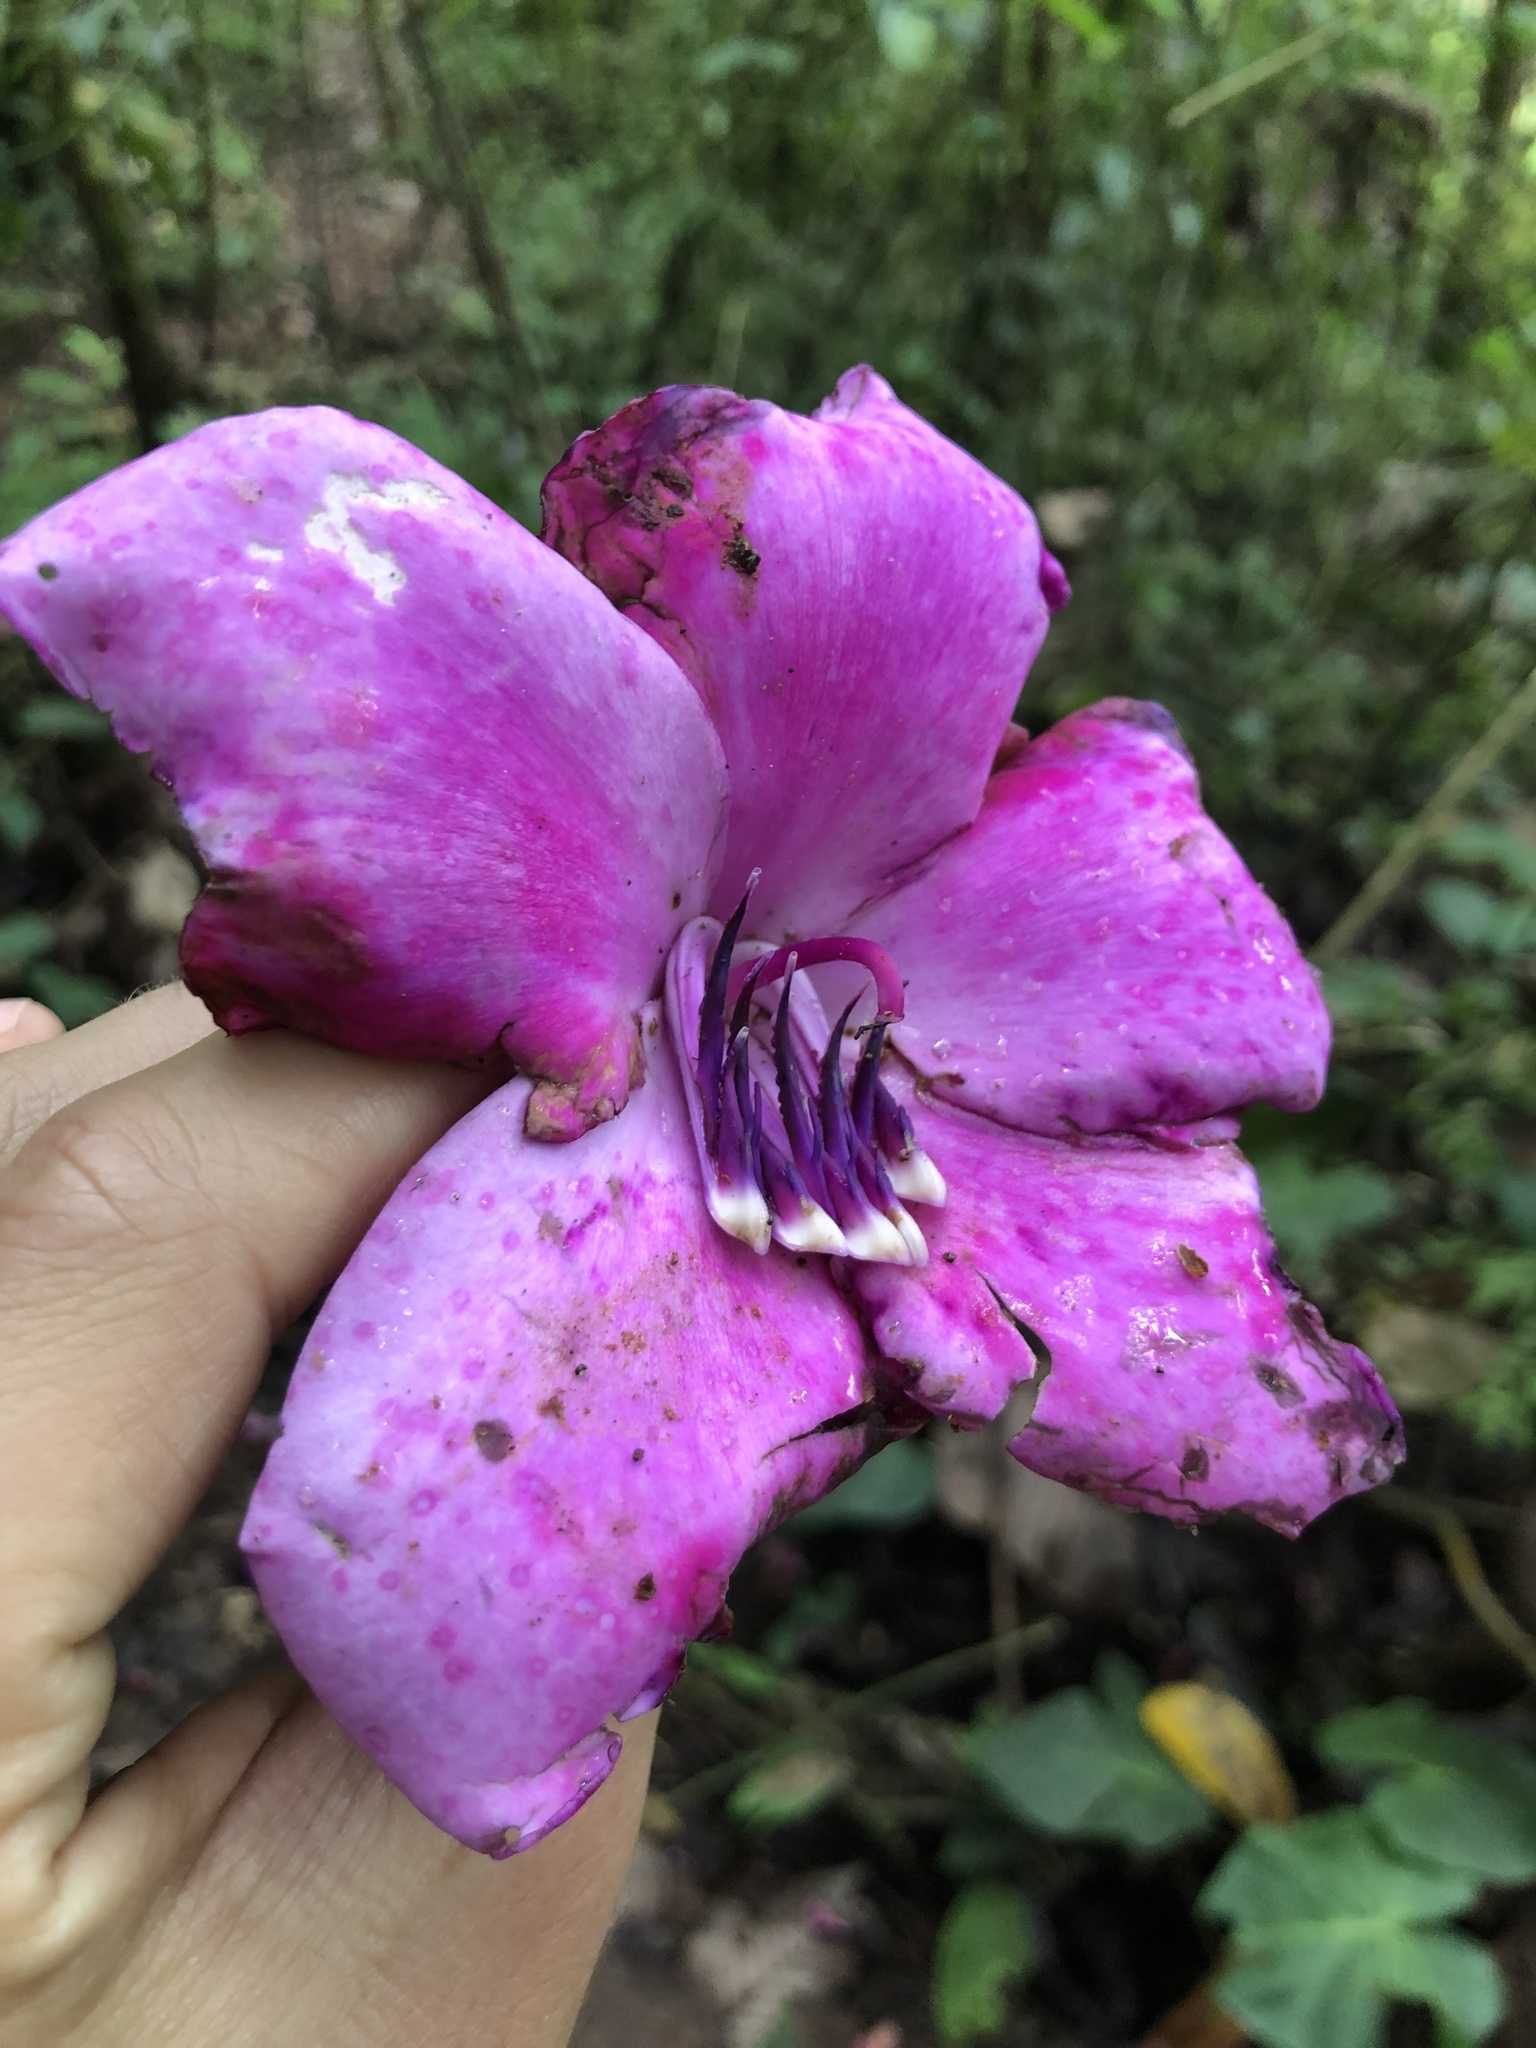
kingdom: Plantae
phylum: Tracheophyta
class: Magnoliopsida
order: Myrtales
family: Melastomataceae
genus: Meriania
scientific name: Meriania maxima
